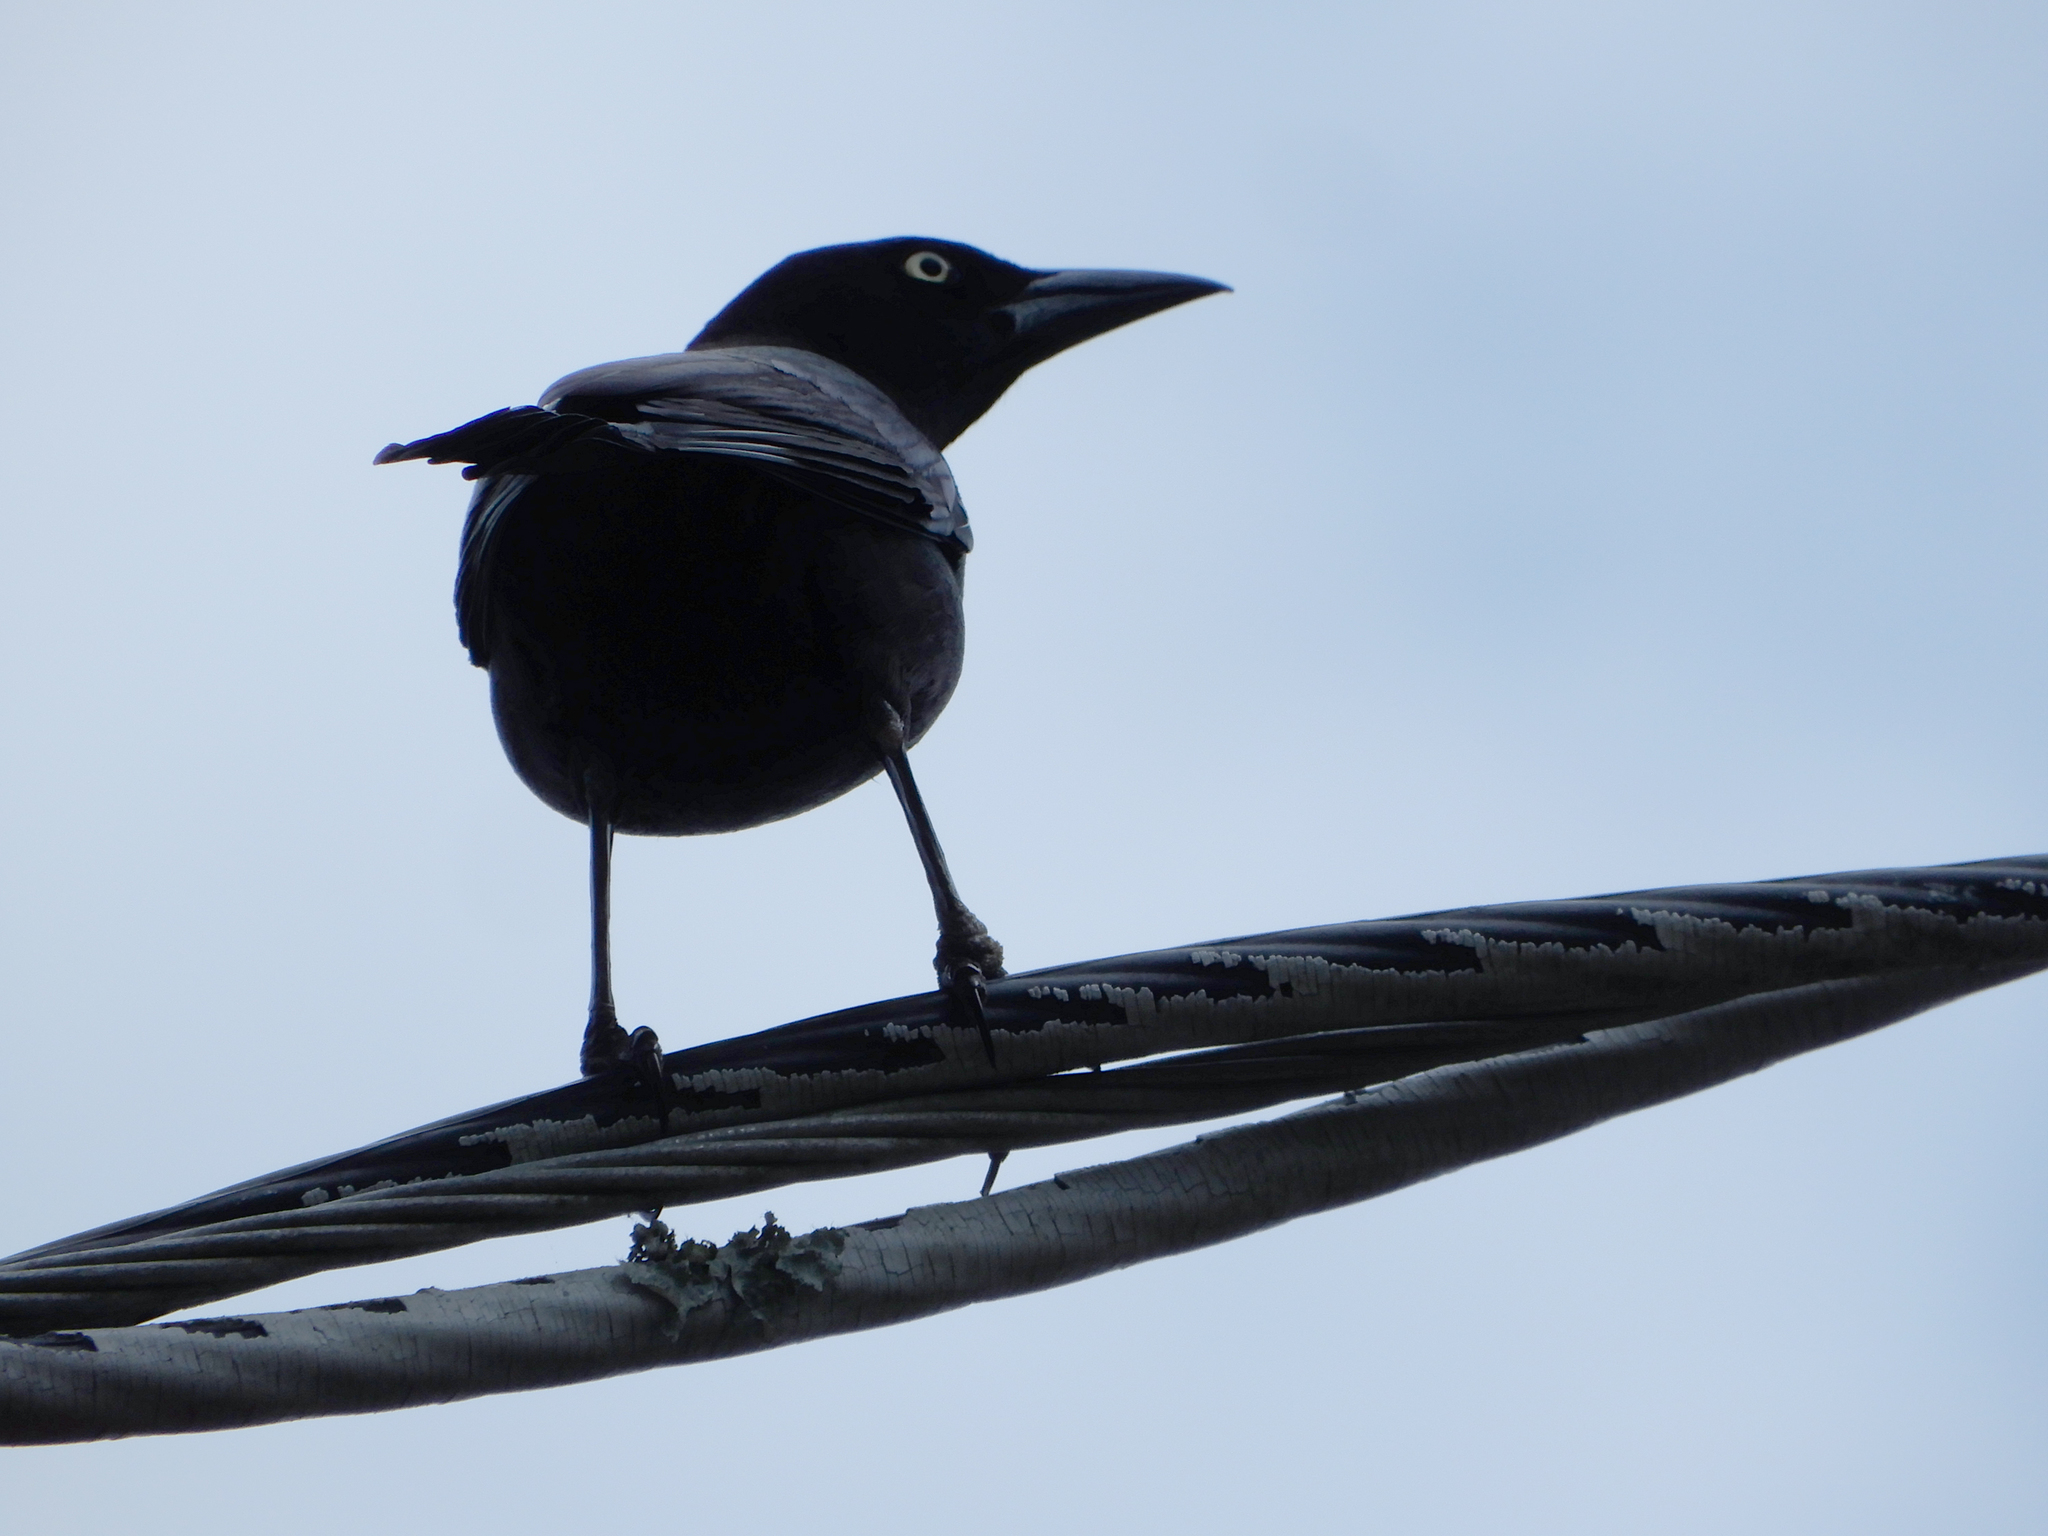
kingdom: Animalia
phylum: Chordata
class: Aves
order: Passeriformes
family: Icteridae
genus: Quiscalus
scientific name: Quiscalus quiscula
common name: Common grackle
